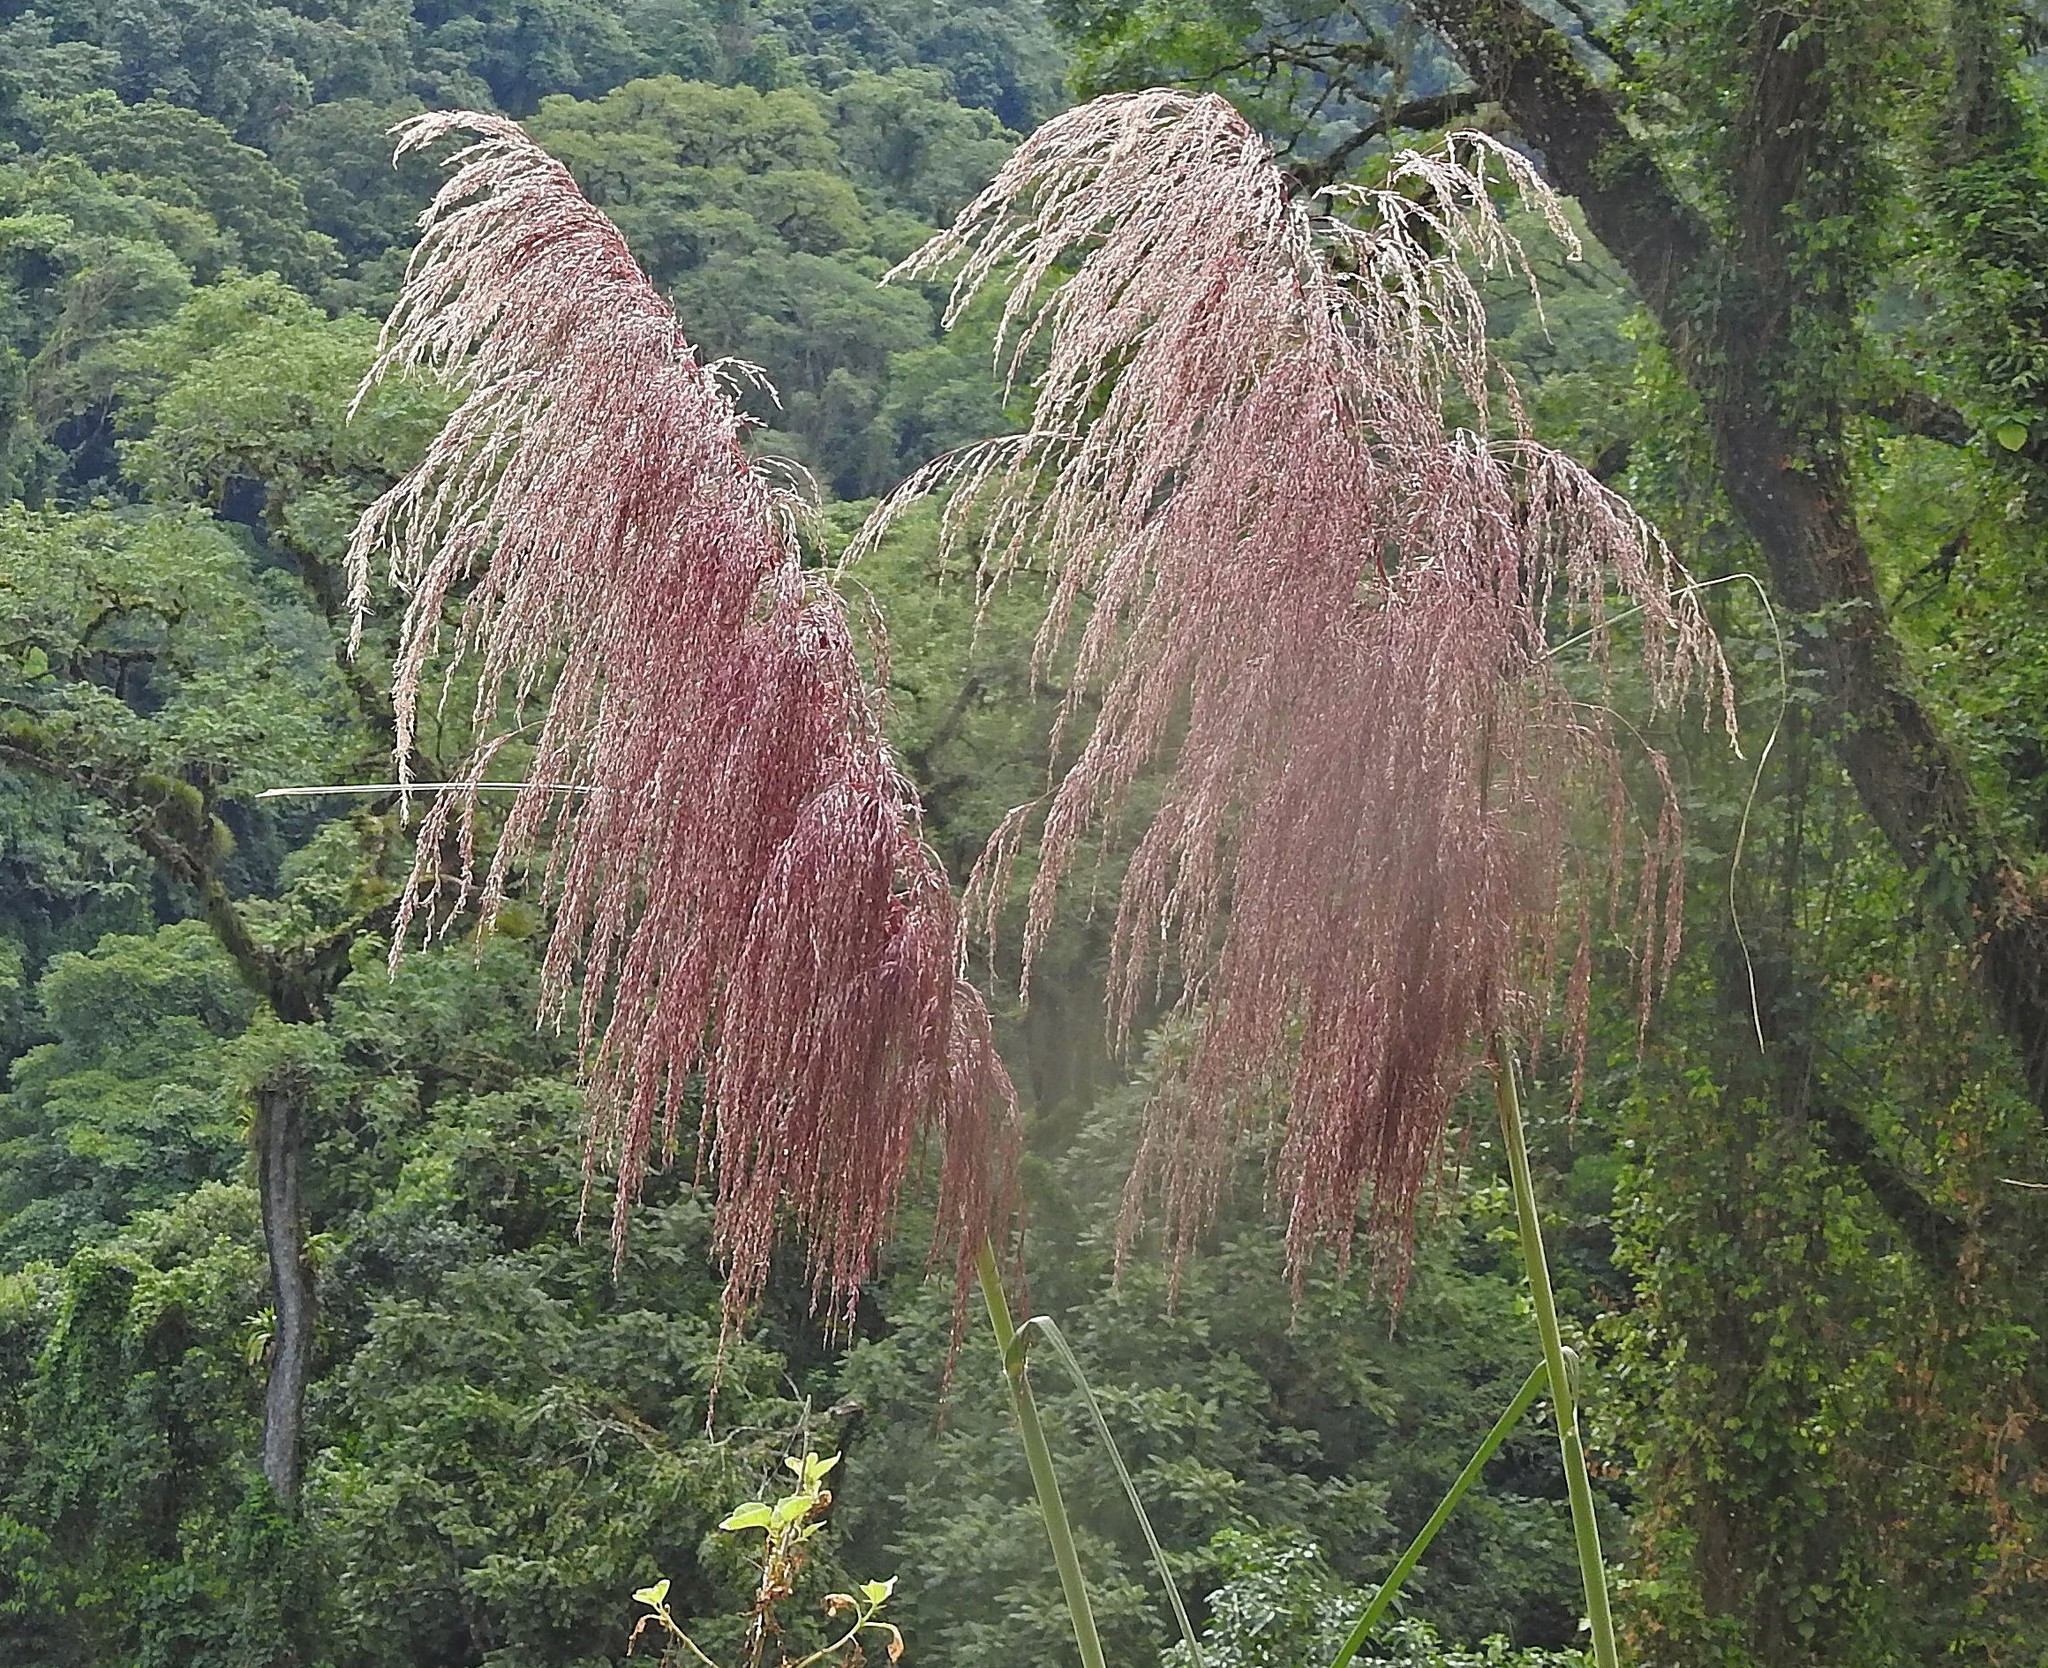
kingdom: Plantae
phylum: Tracheophyta
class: Liliopsida
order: Poales
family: Poaceae
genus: Cortaderia
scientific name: Cortaderia jubata
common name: Purple pampas grass
